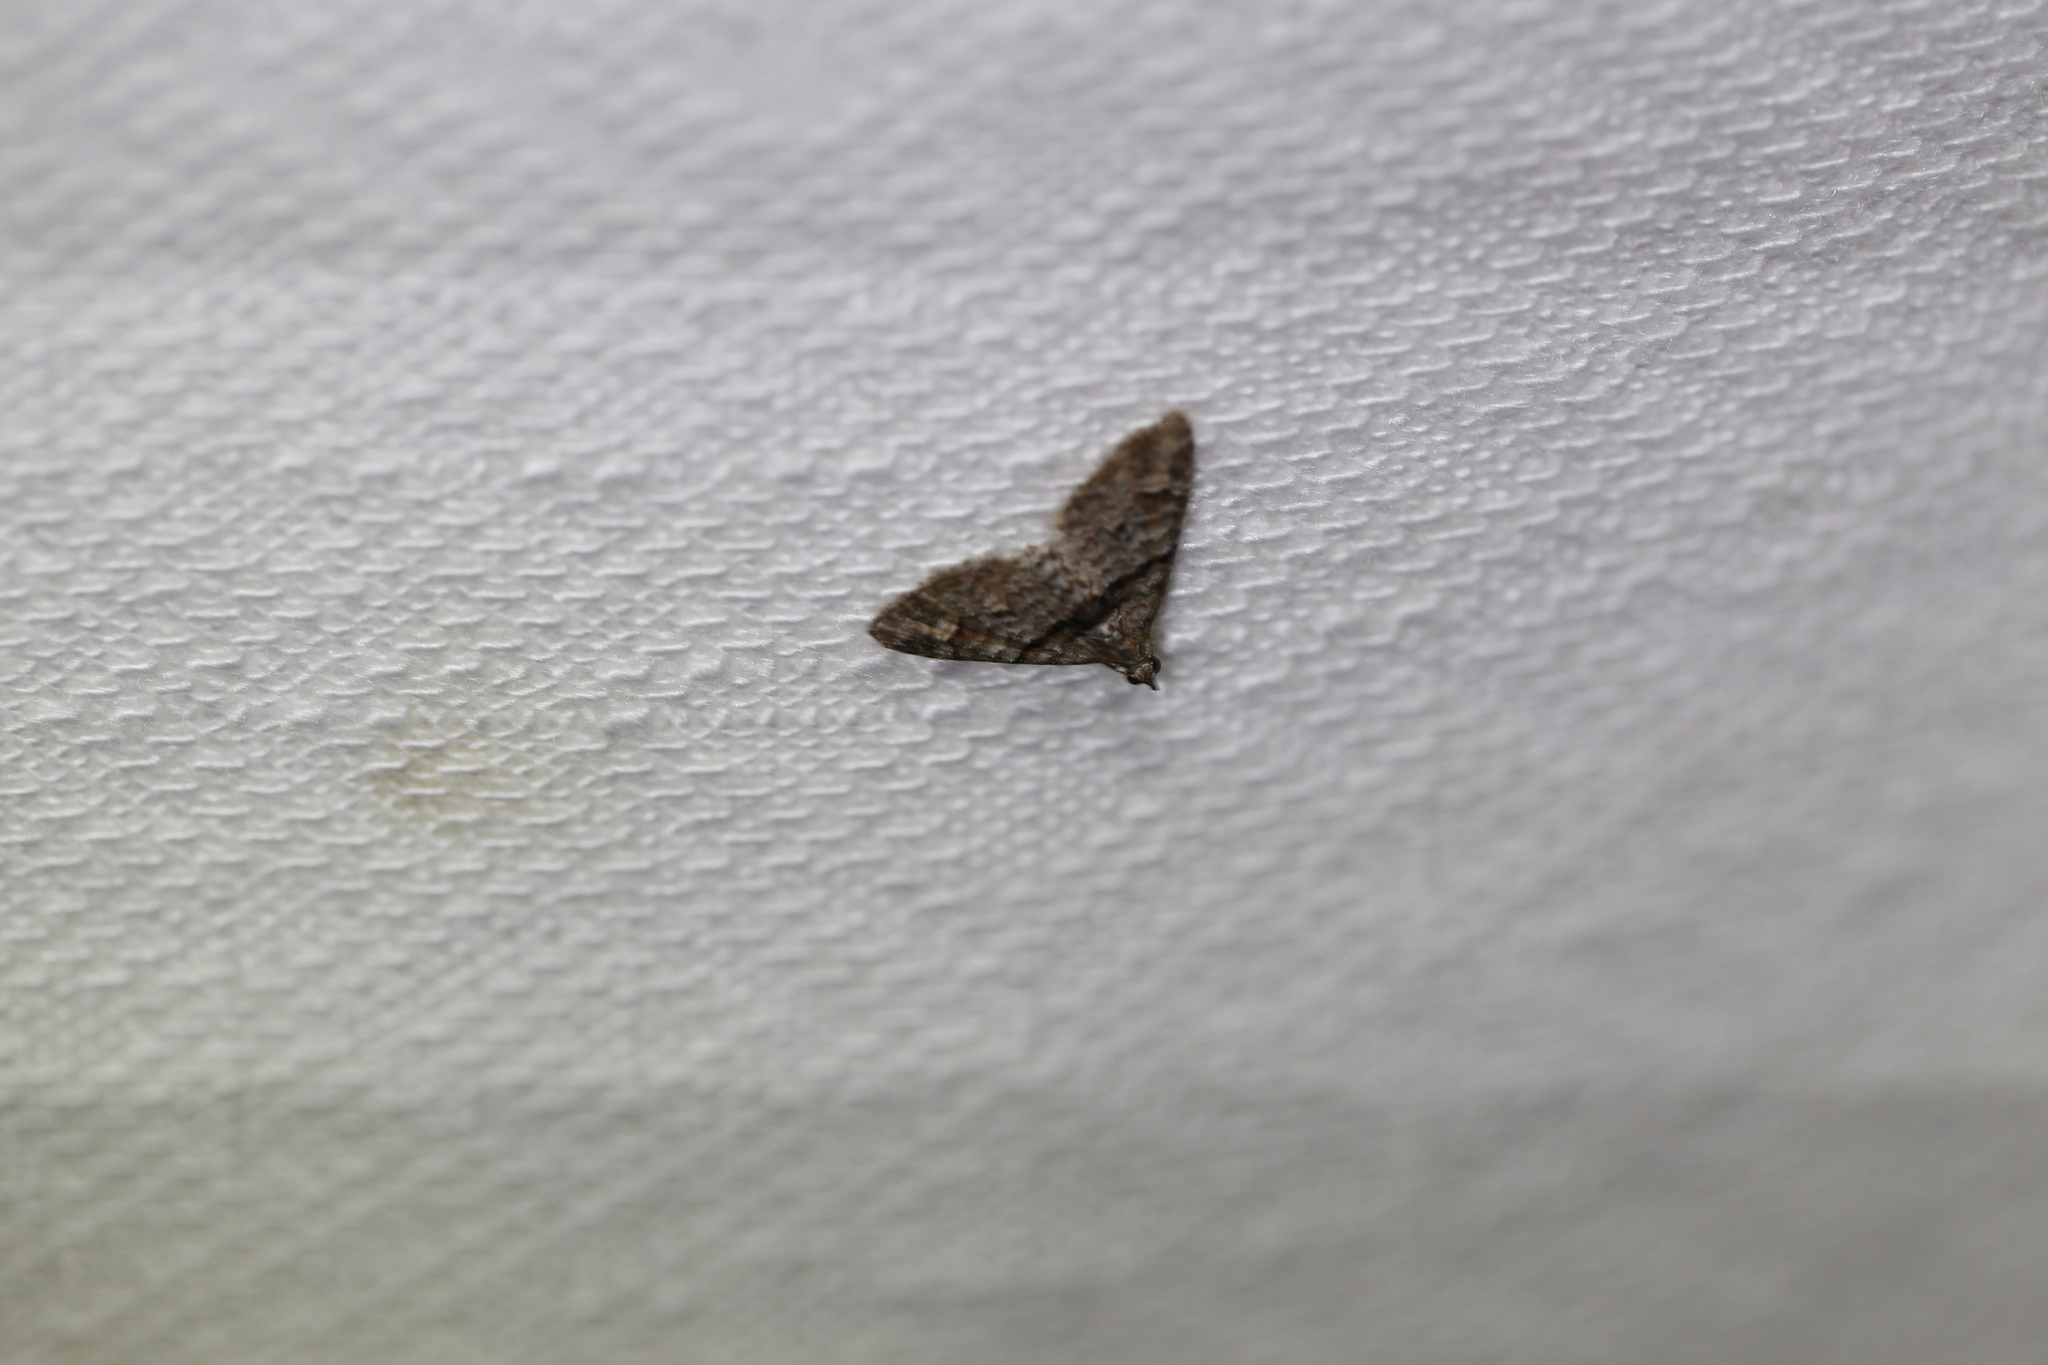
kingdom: Animalia
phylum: Arthropoda
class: Insecta
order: Lepidoptera
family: Geometridae
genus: Phrissogonus
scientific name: Phrissogonus laticostata
